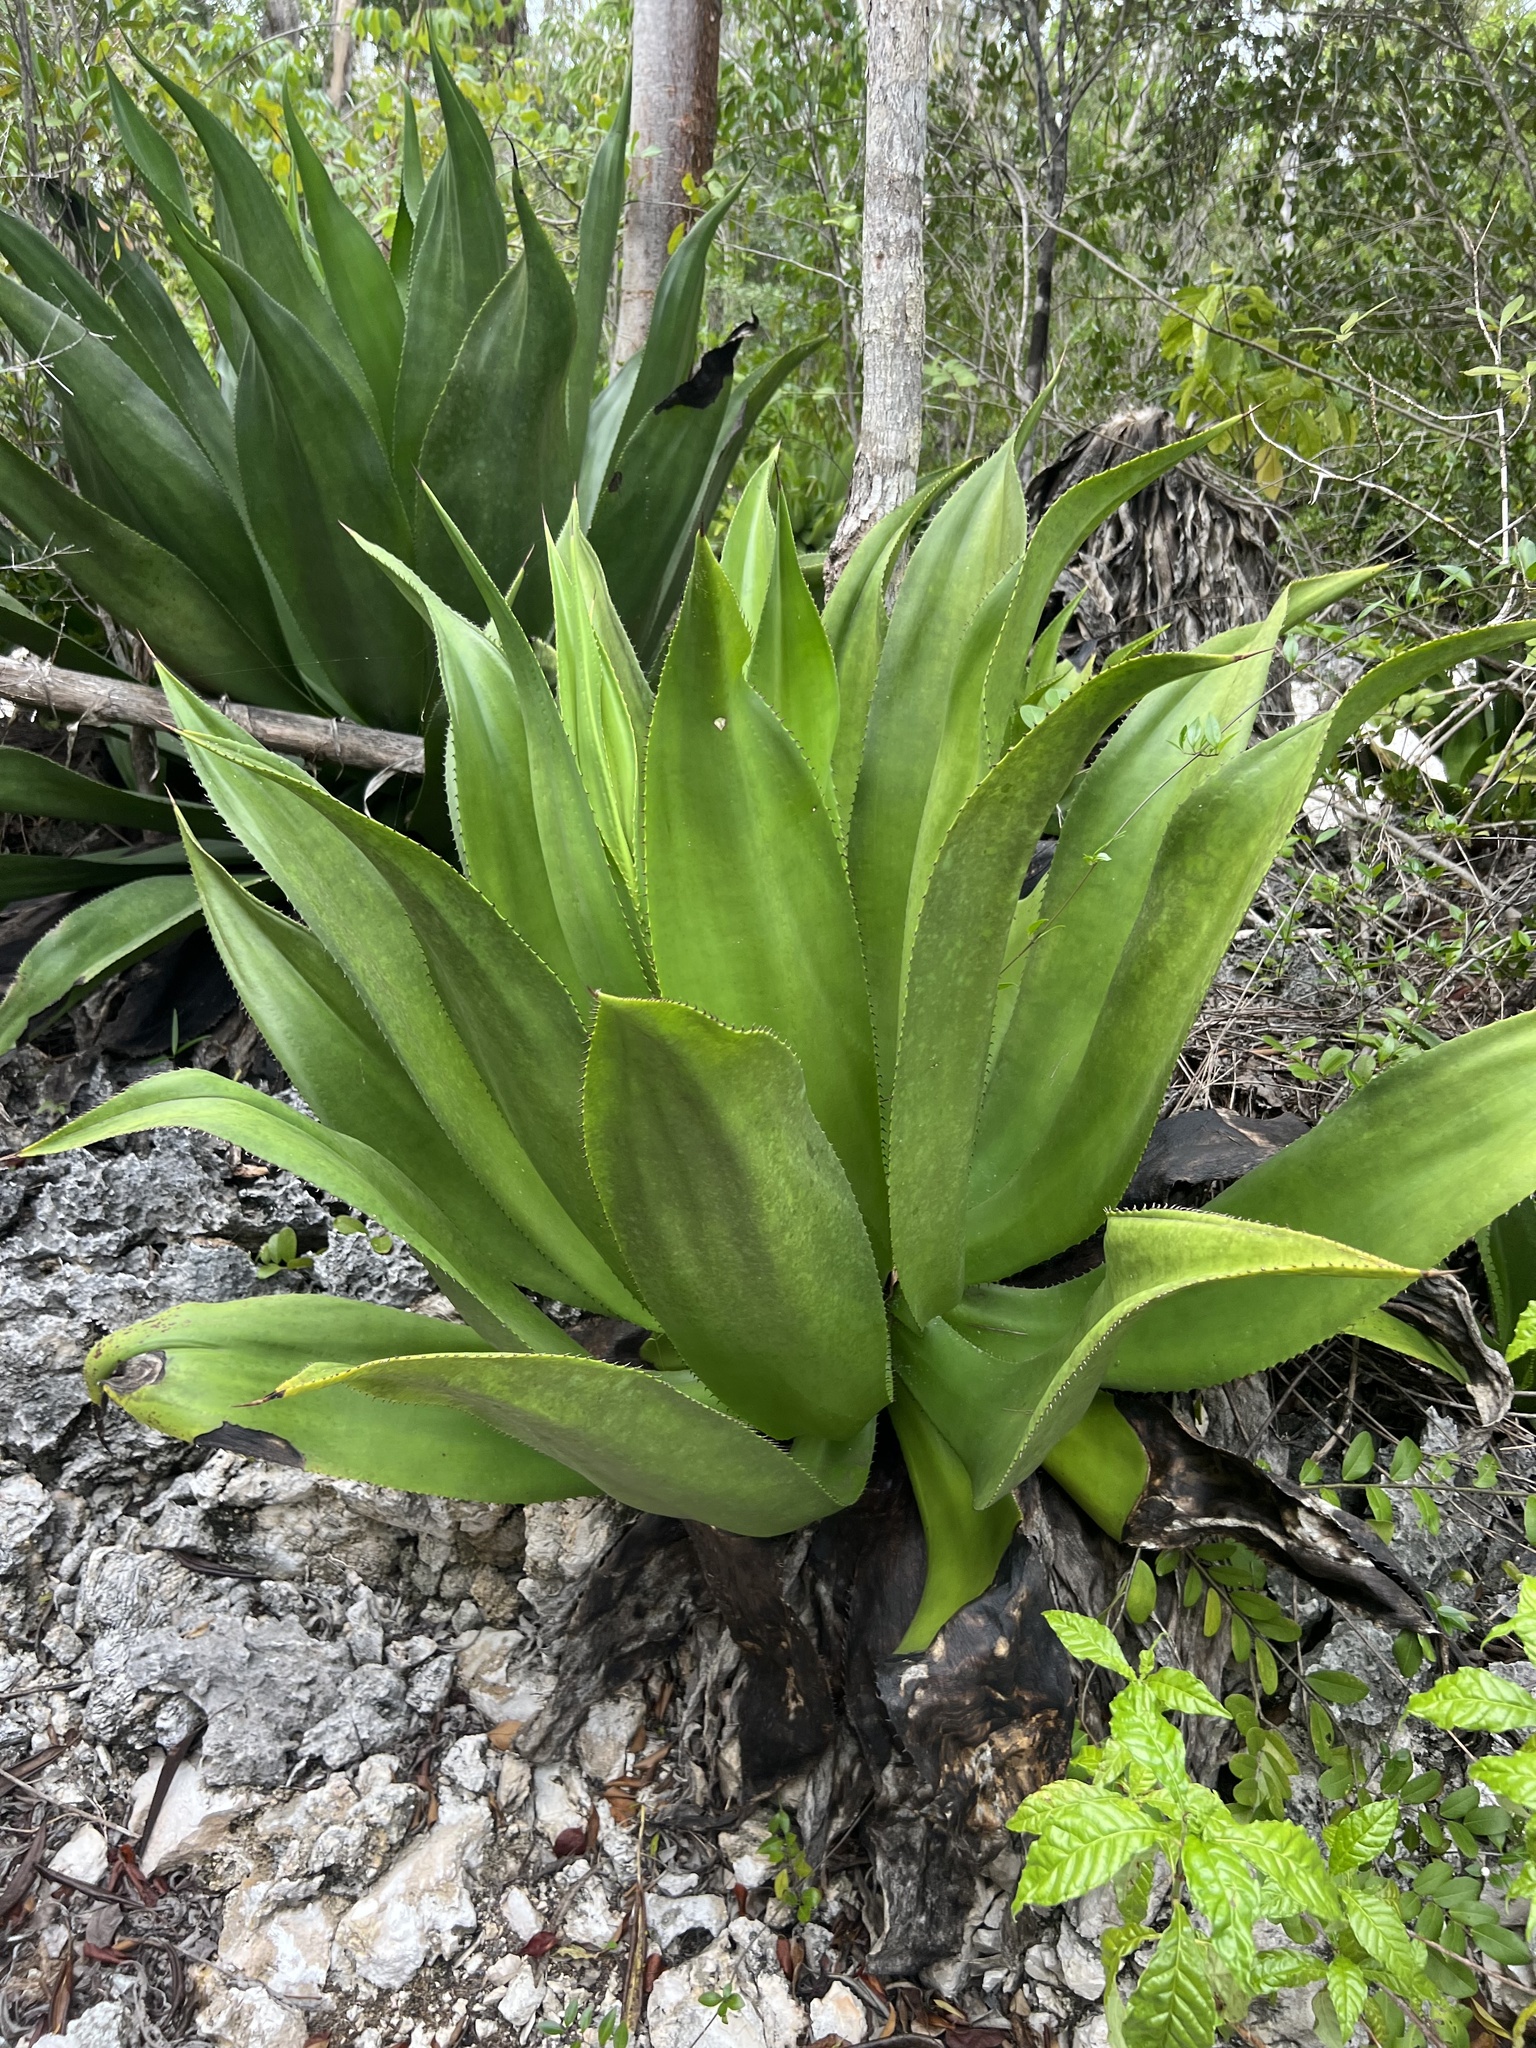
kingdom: Plantae
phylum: Tracheophyta
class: Liliopsida
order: Asparagales
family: Asparagaceae
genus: Agave
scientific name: Agave caymanensis
